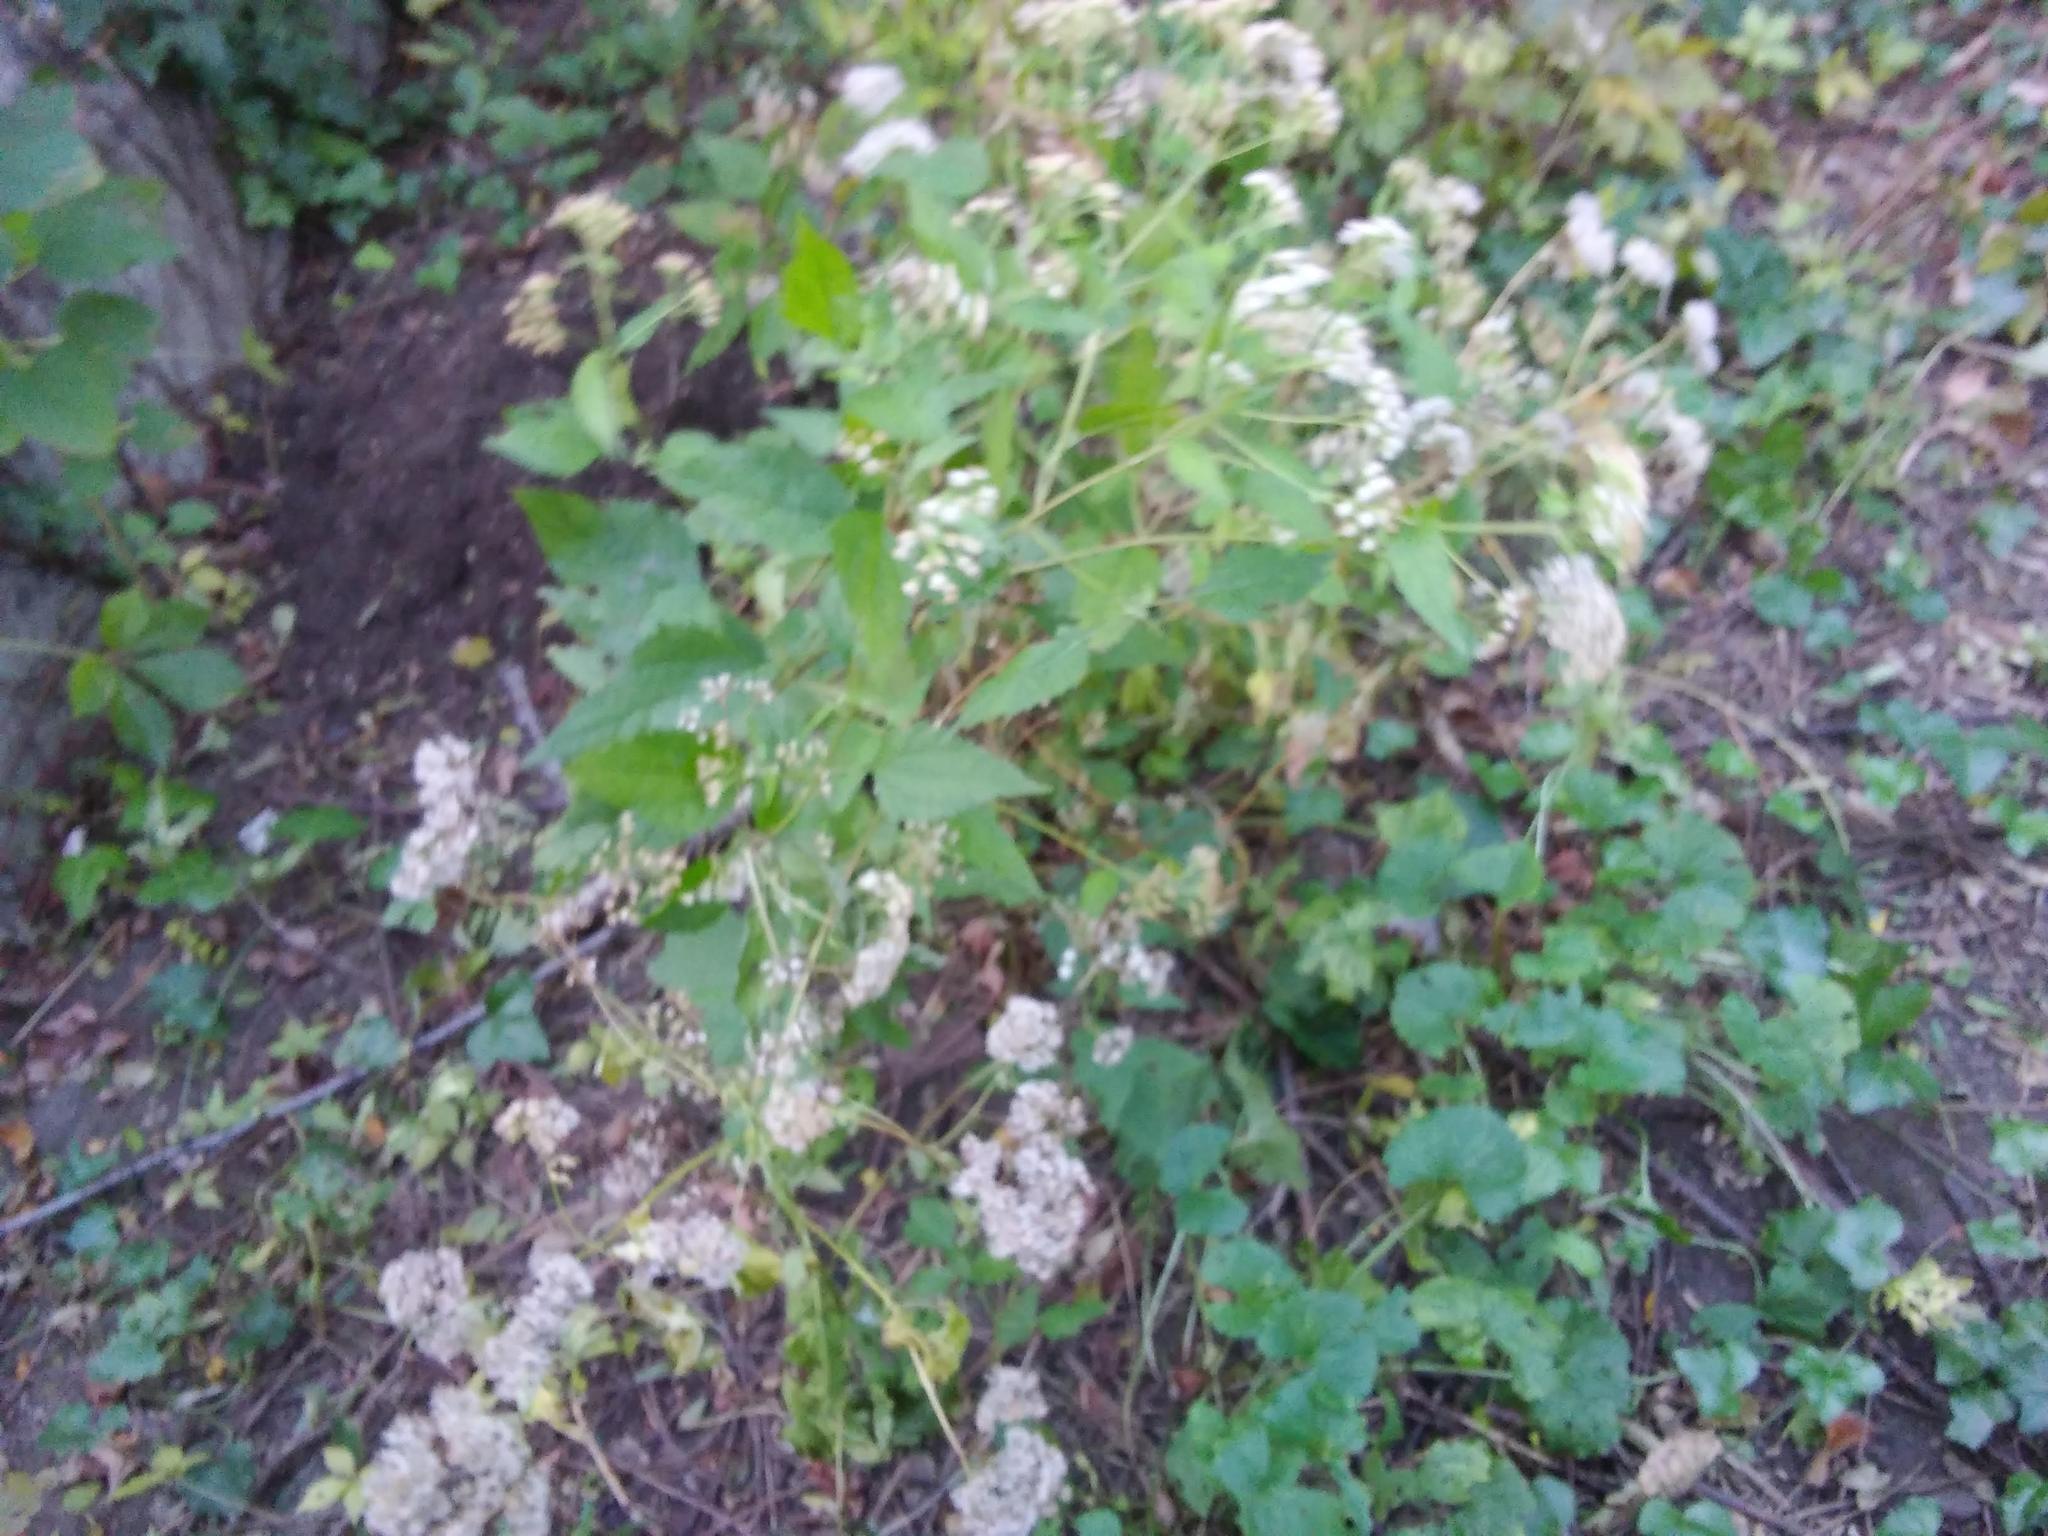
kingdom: Plantae
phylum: Tracheophyta
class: Magnoliopsida
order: Asterales
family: Asteraceae
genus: Ageratina
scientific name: Ageratina altissima
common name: White snakeroot
